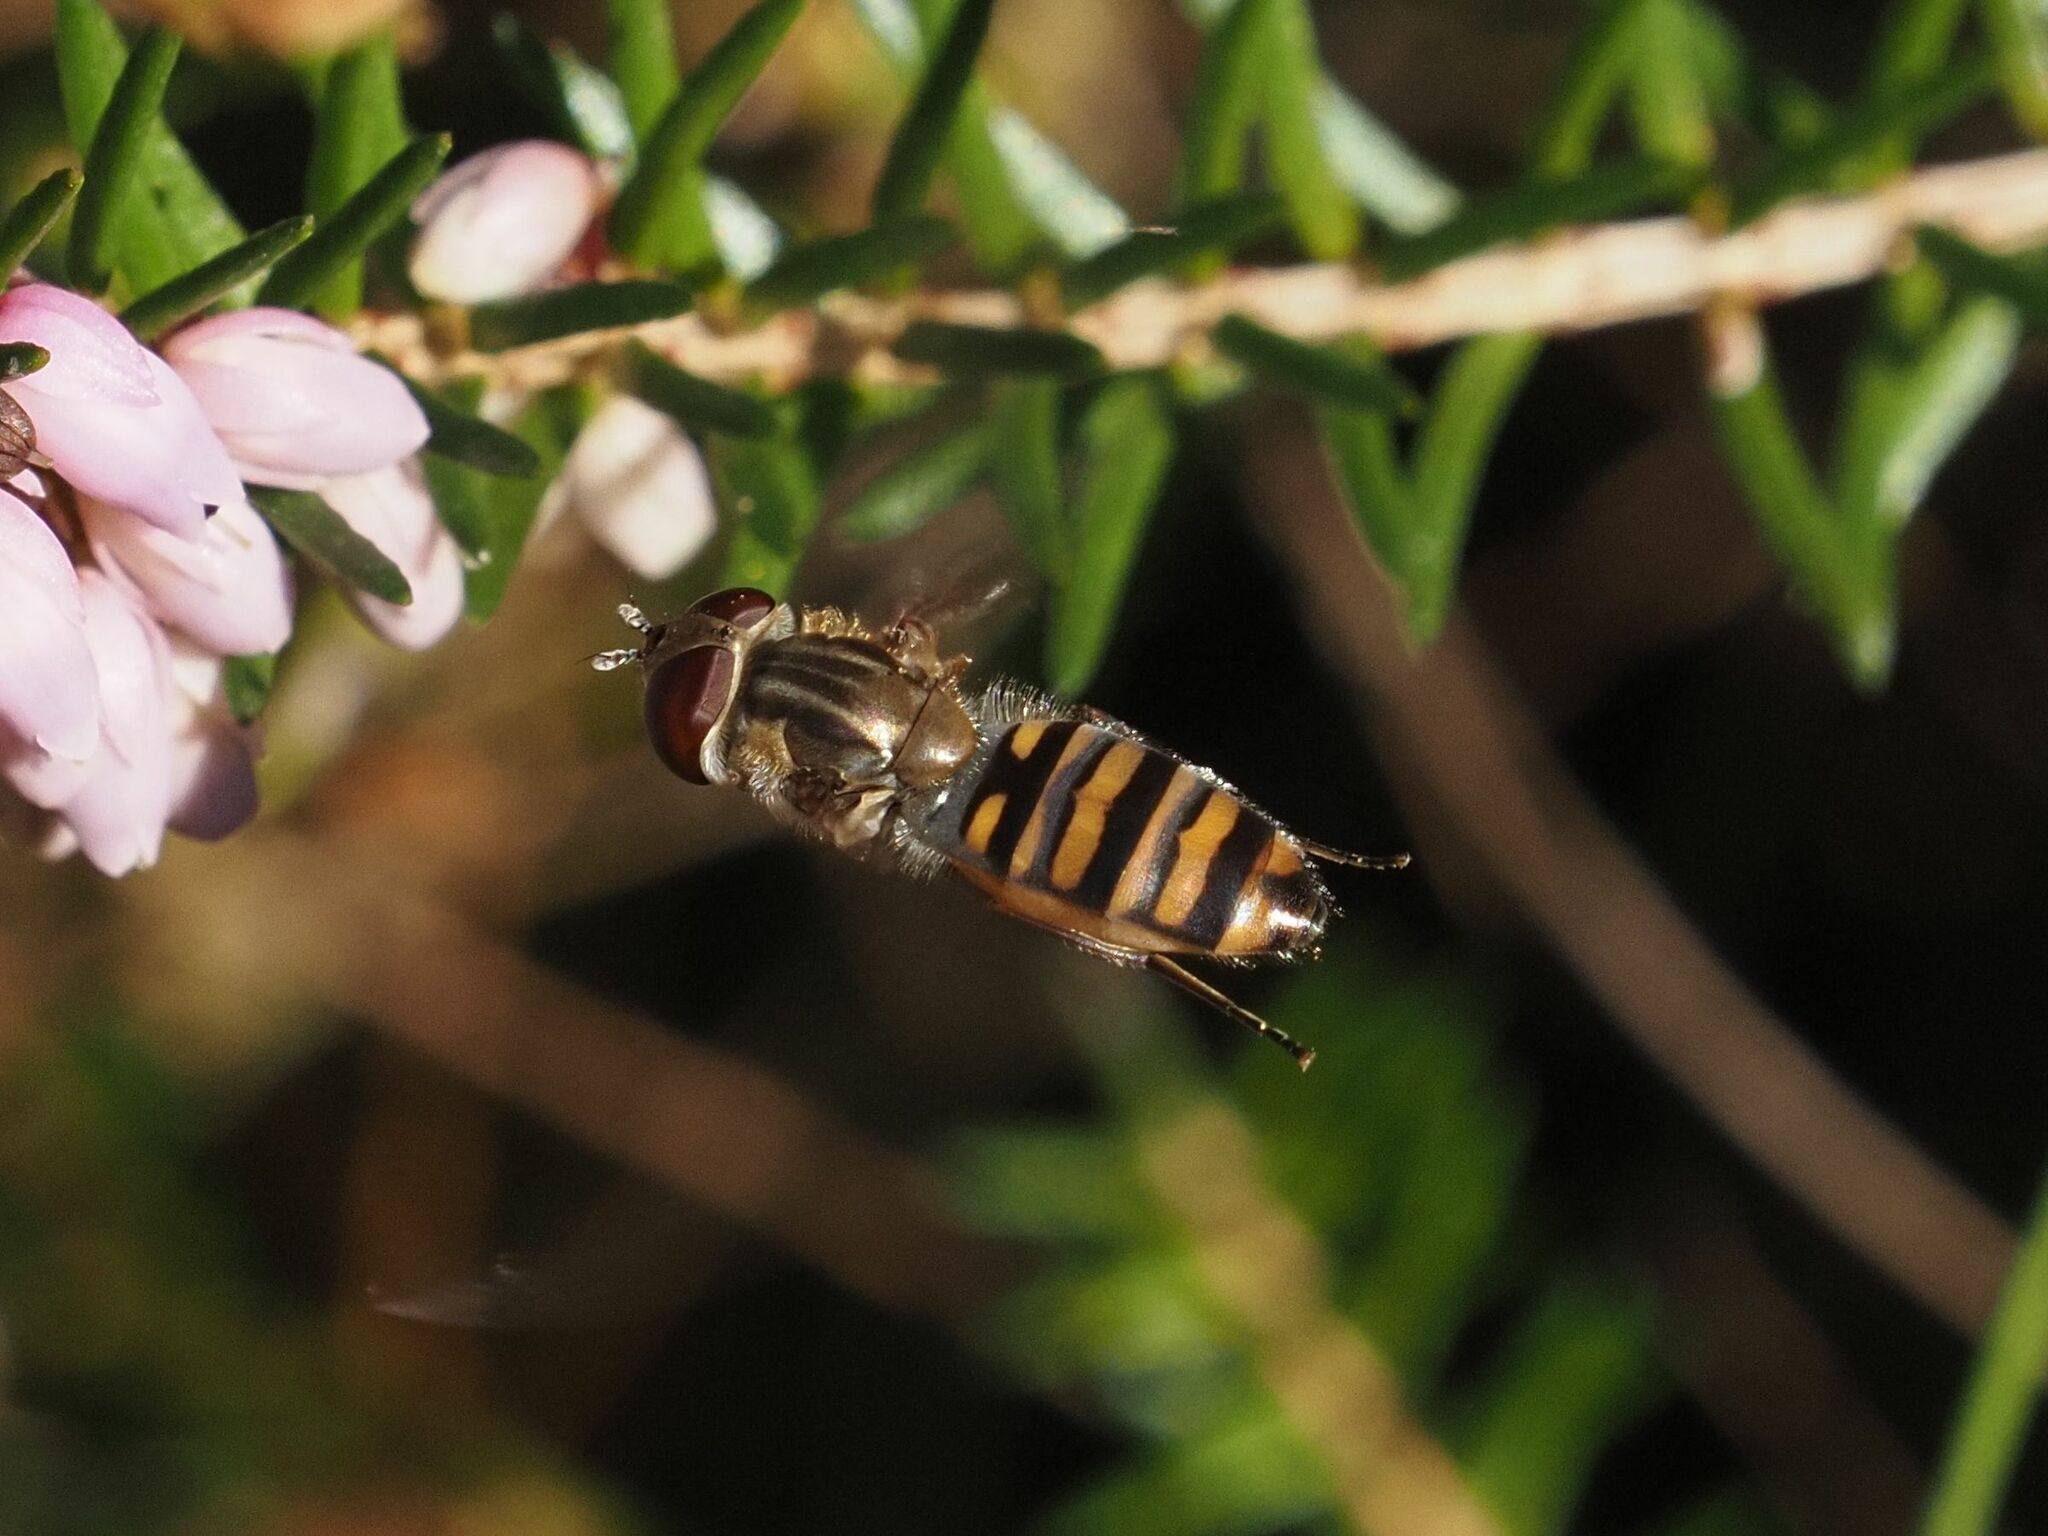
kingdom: Animalia
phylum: Arthropoda
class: Insecta
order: Diptera
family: Syrphidae
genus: Episyrphus
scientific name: Episyrphus balteatus
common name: Marmalade hoverfly
